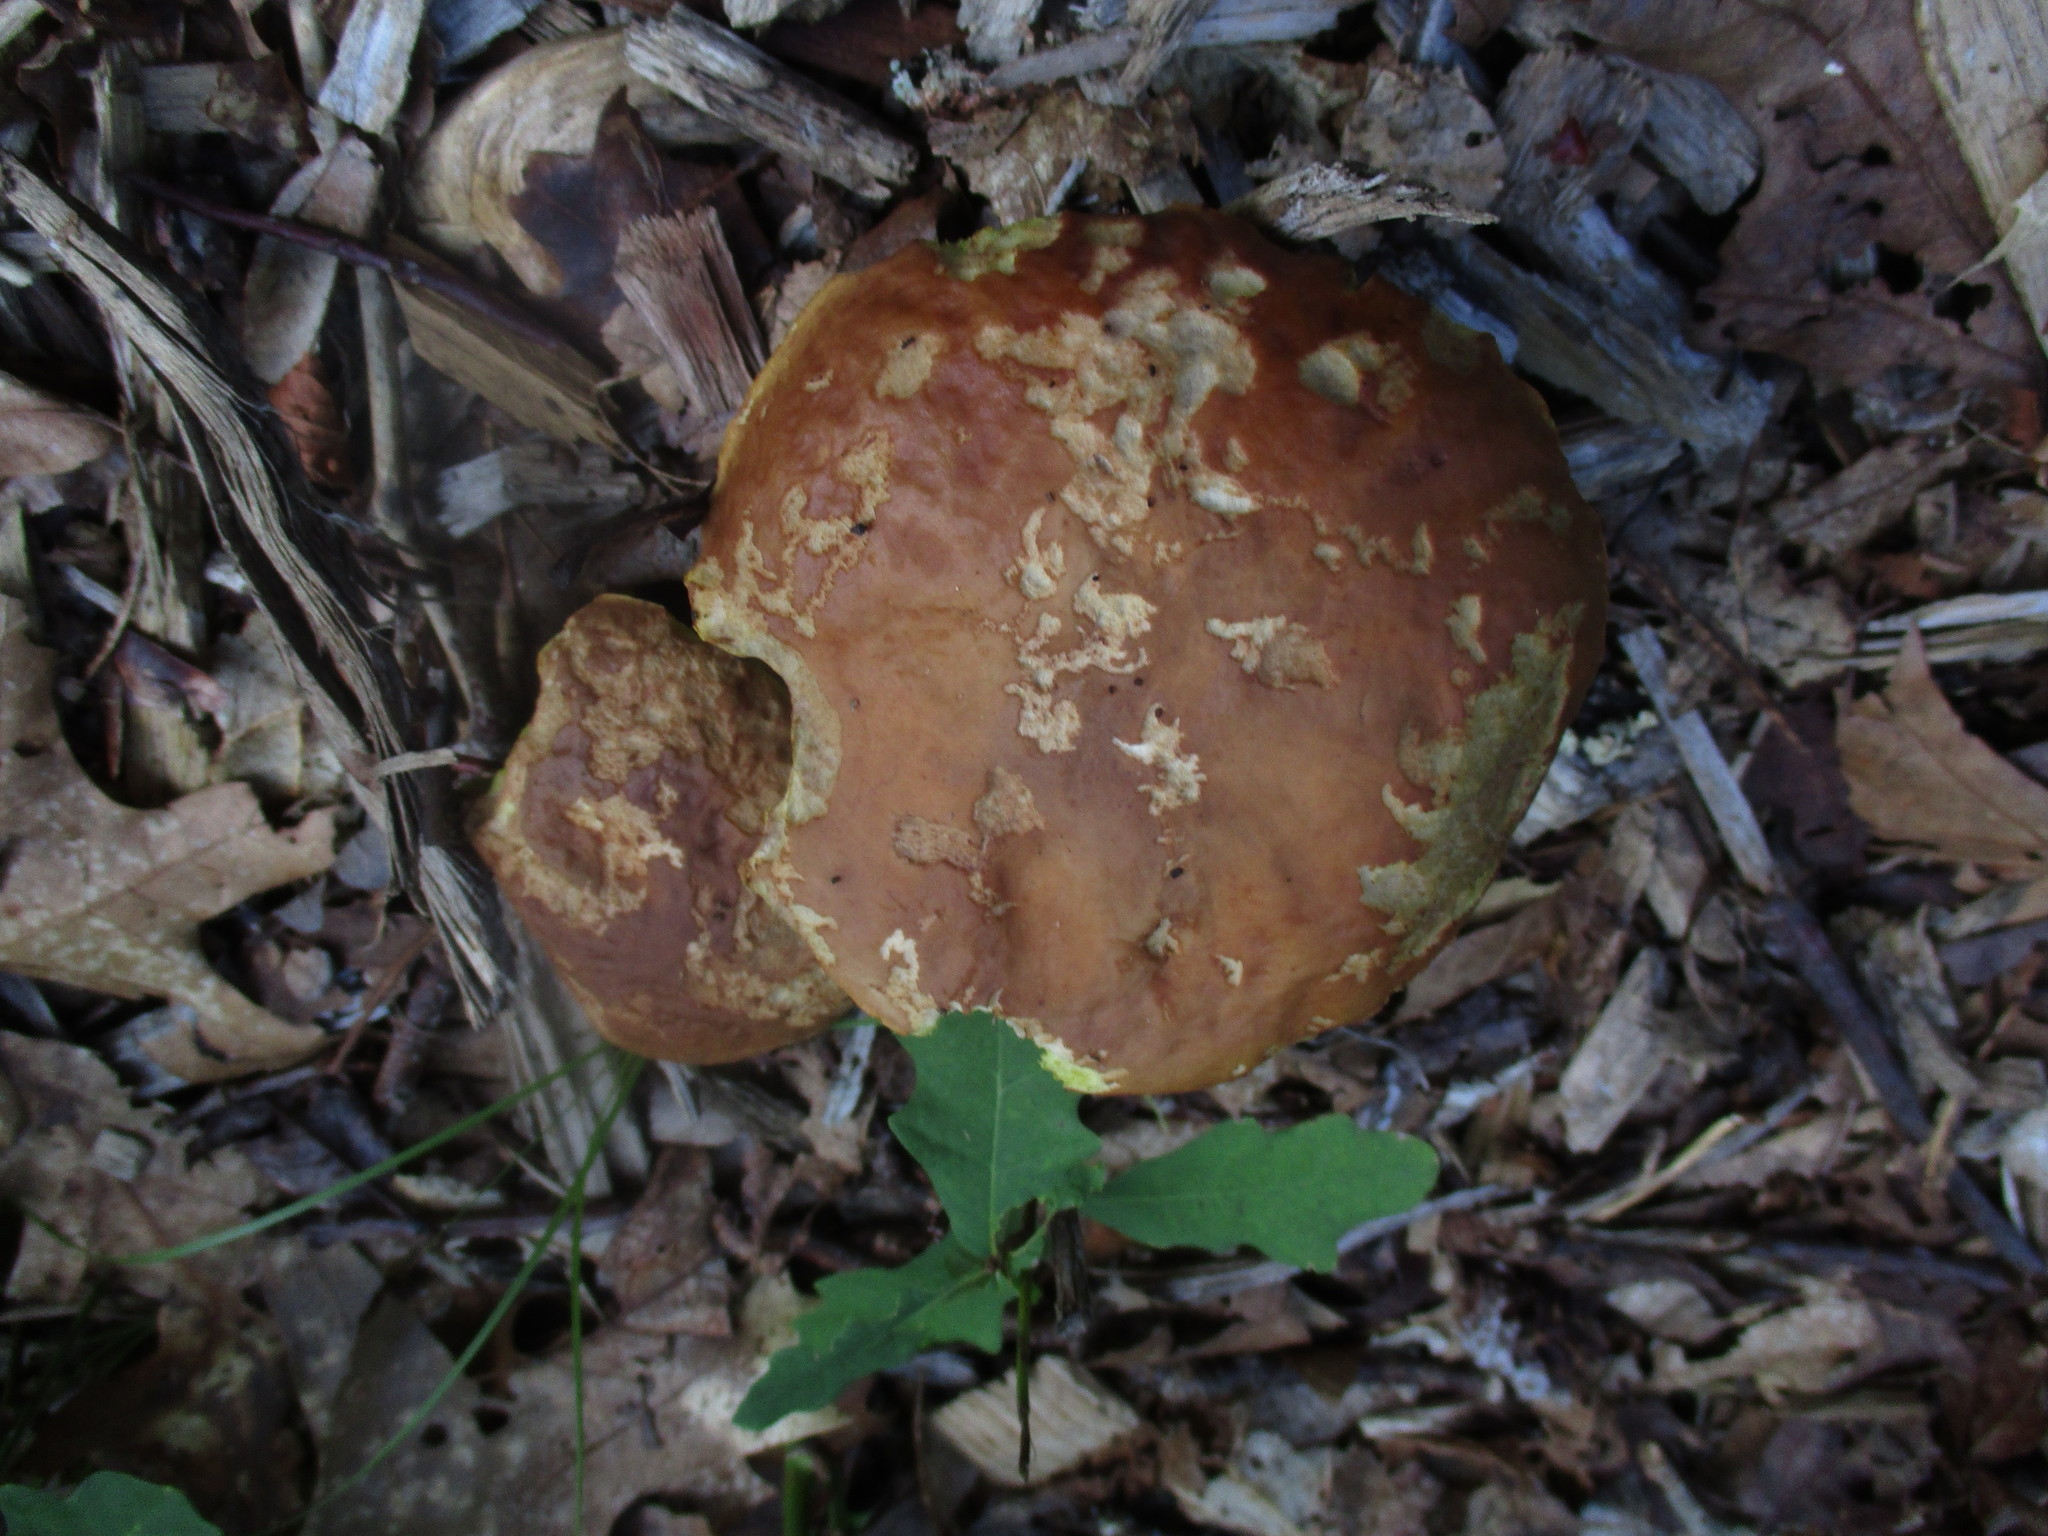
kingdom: Fungi
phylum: Basidiomycota
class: Agaricomycetes
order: Boletales
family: Boletaceae
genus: Hemileccinum
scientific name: Hemileccinum rubropunctum
